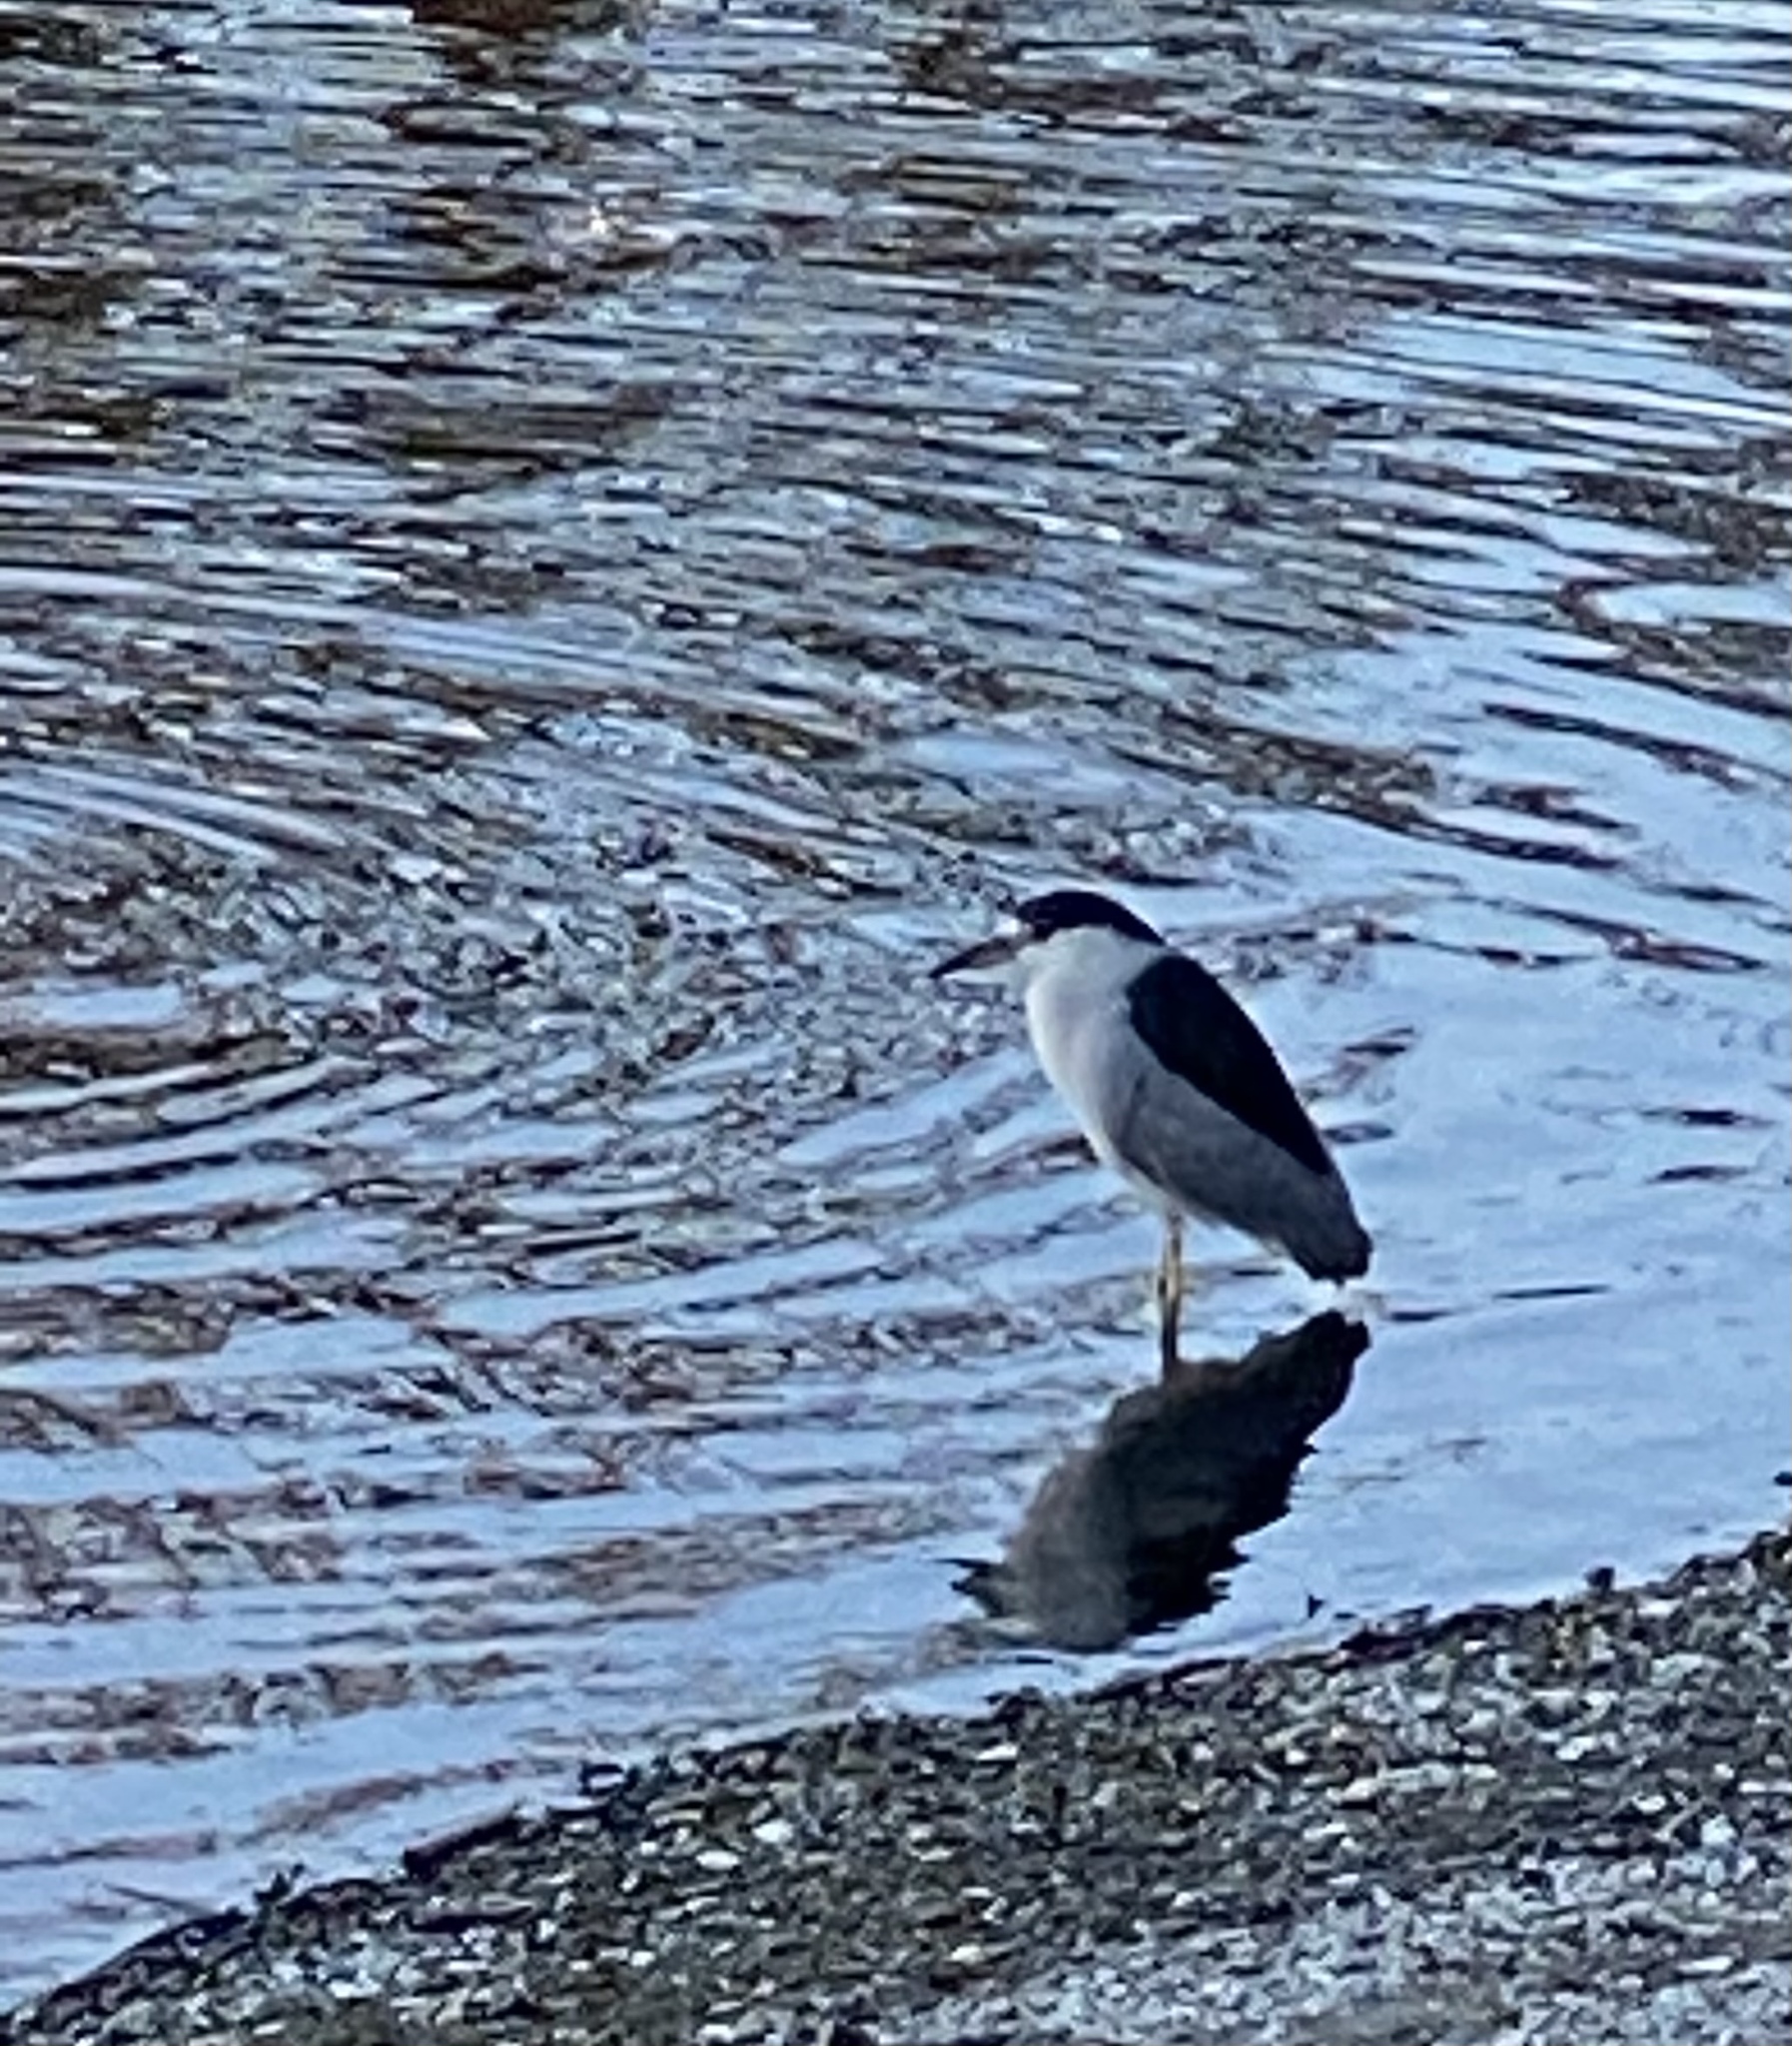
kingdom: Animalia
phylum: Chordata
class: Aves
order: Pelecaniformes
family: Ardeidae
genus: Nycticorax
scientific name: Nycticorax nycticorax
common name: Black-crowned night heron
